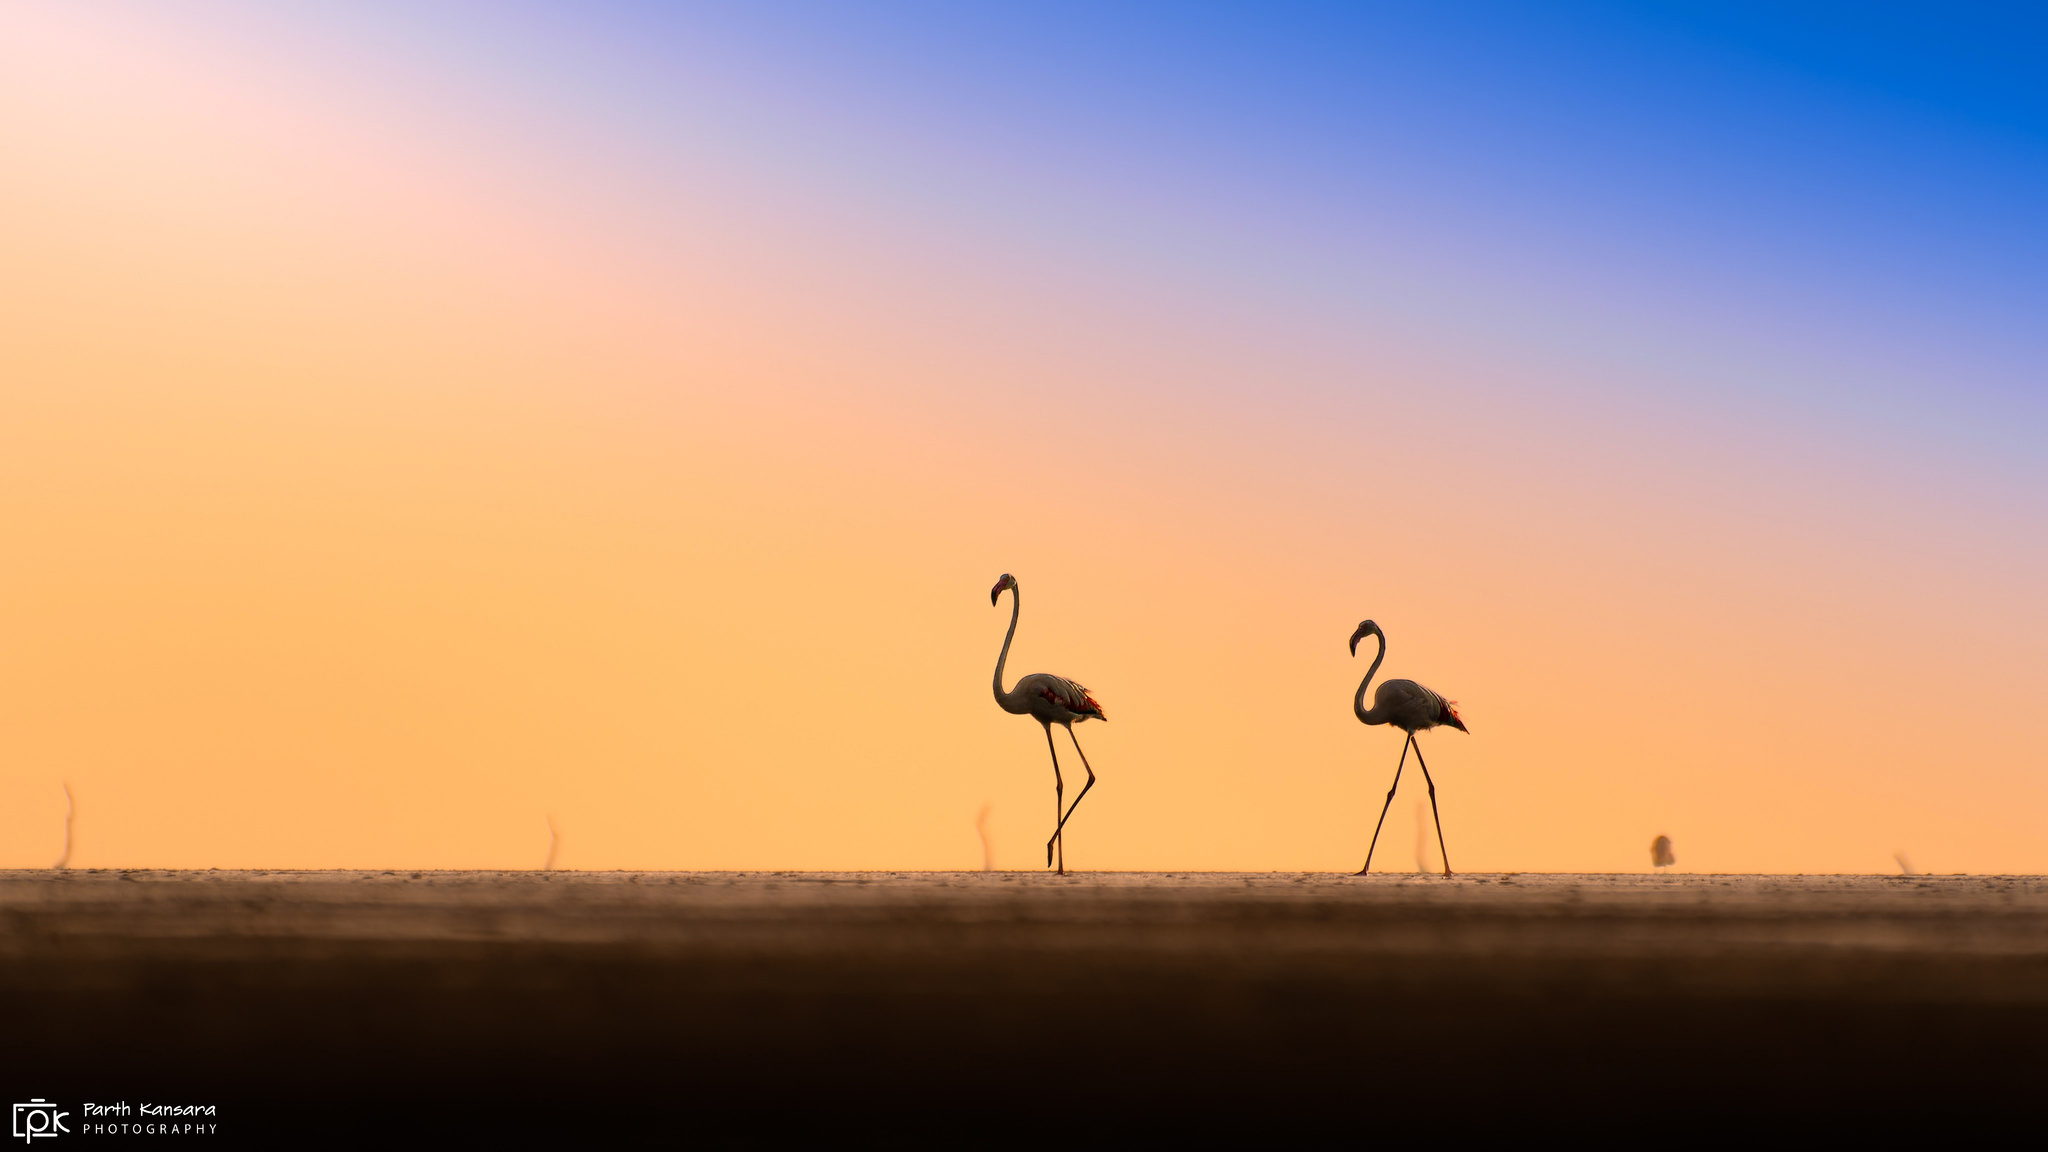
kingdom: Animalia
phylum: Chordata
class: Aves
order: Phoenicopteriformes
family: Phoenicopteridae
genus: Phoenicopterus
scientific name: Phoenicopterus roseus
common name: Greater flamingo
